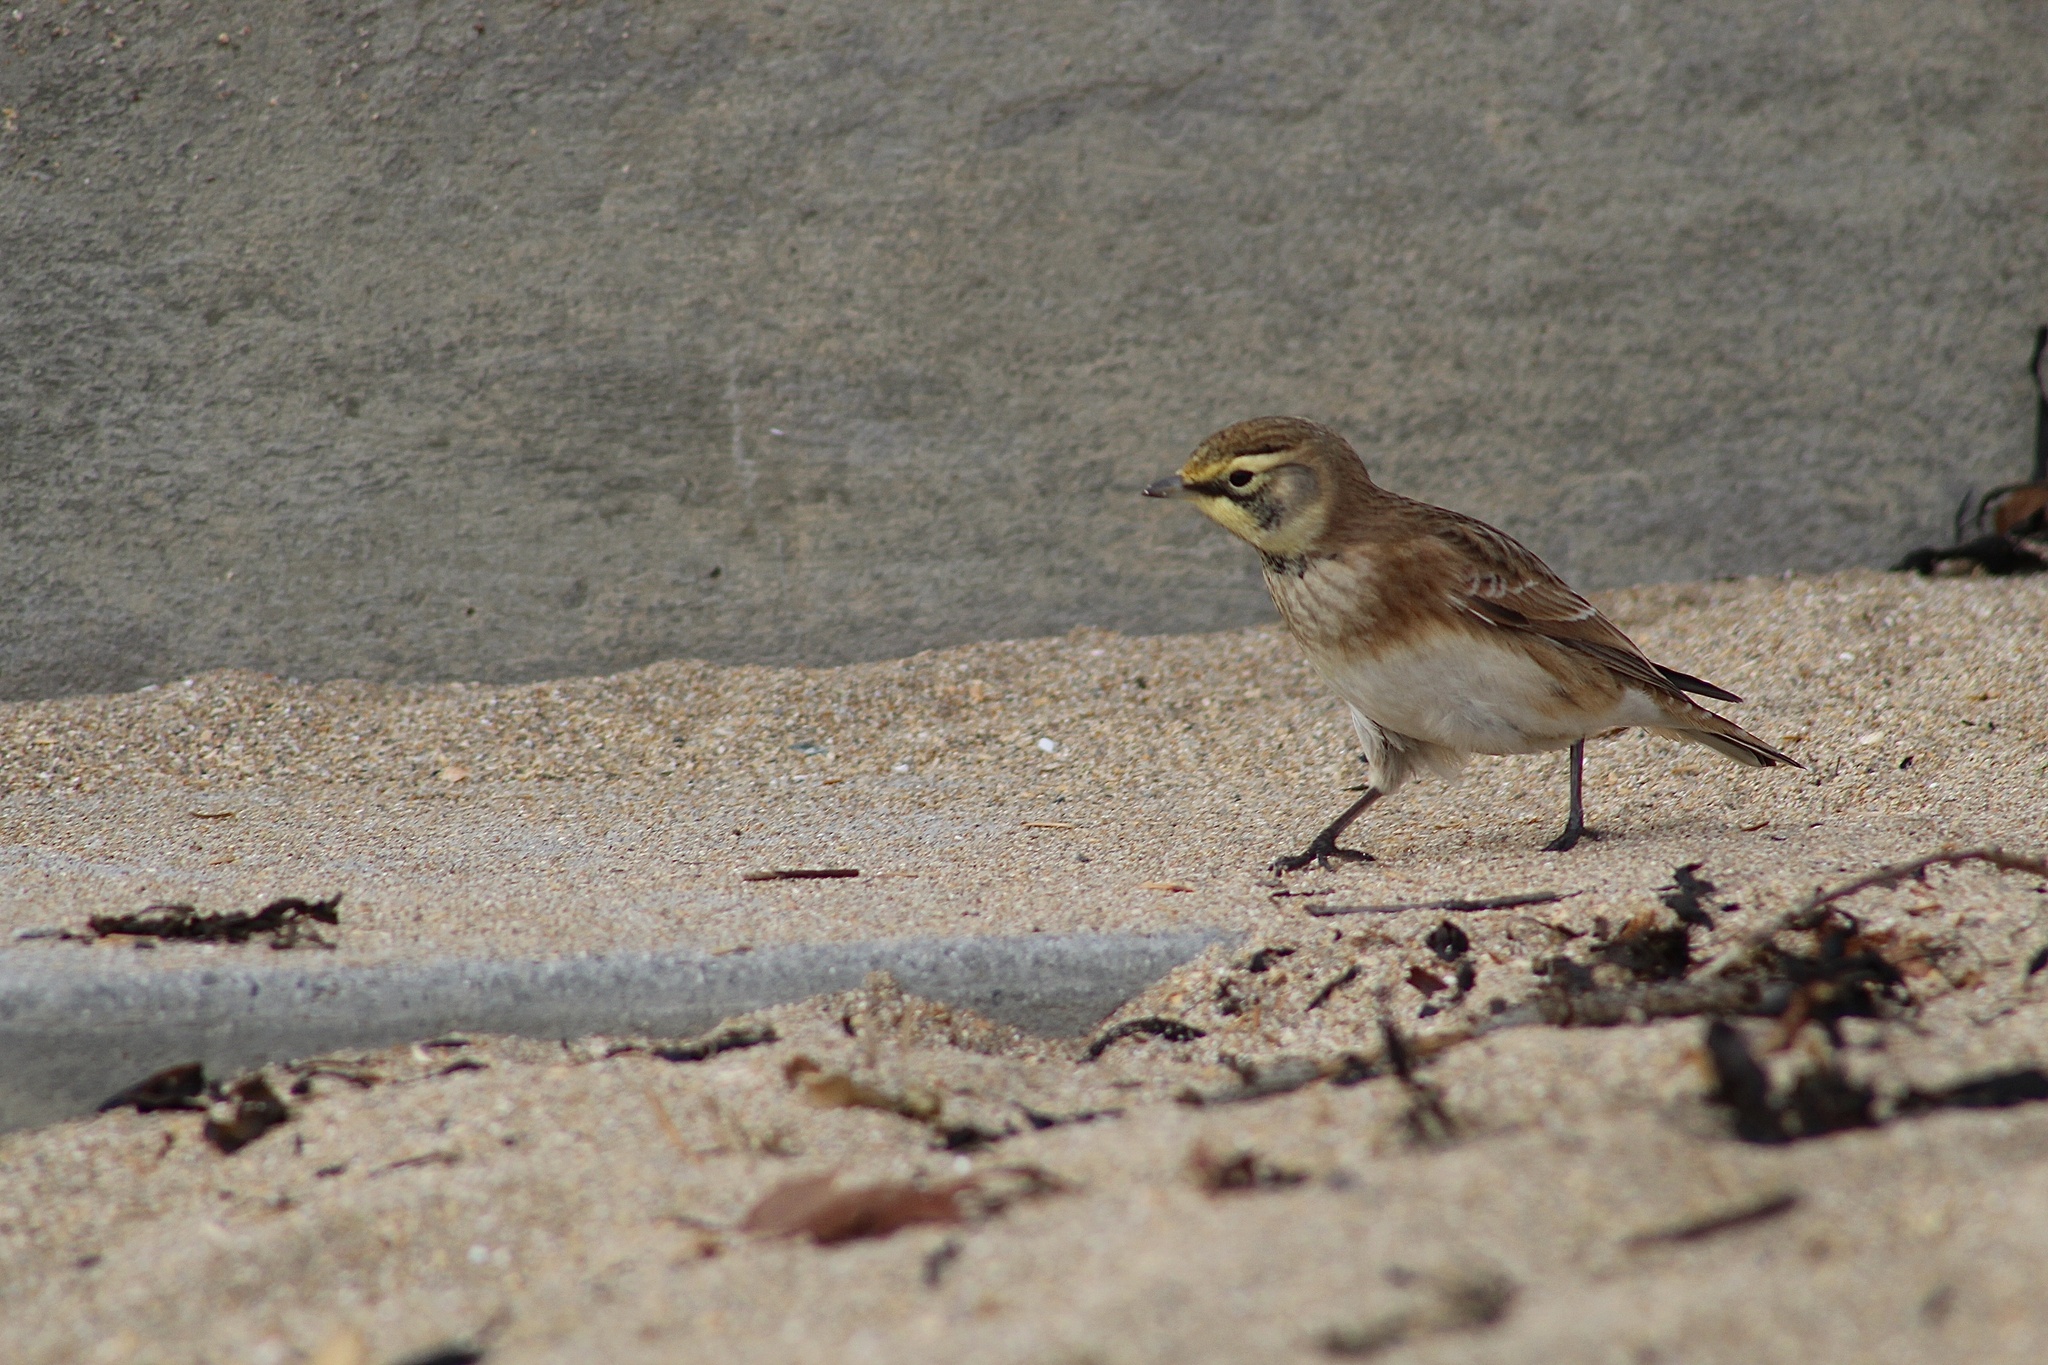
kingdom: Animalia
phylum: Chordata
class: Aves
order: Passeriformes
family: Alaudidae
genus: Eremophila
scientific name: Eremophila alpestris
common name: Horned lark
